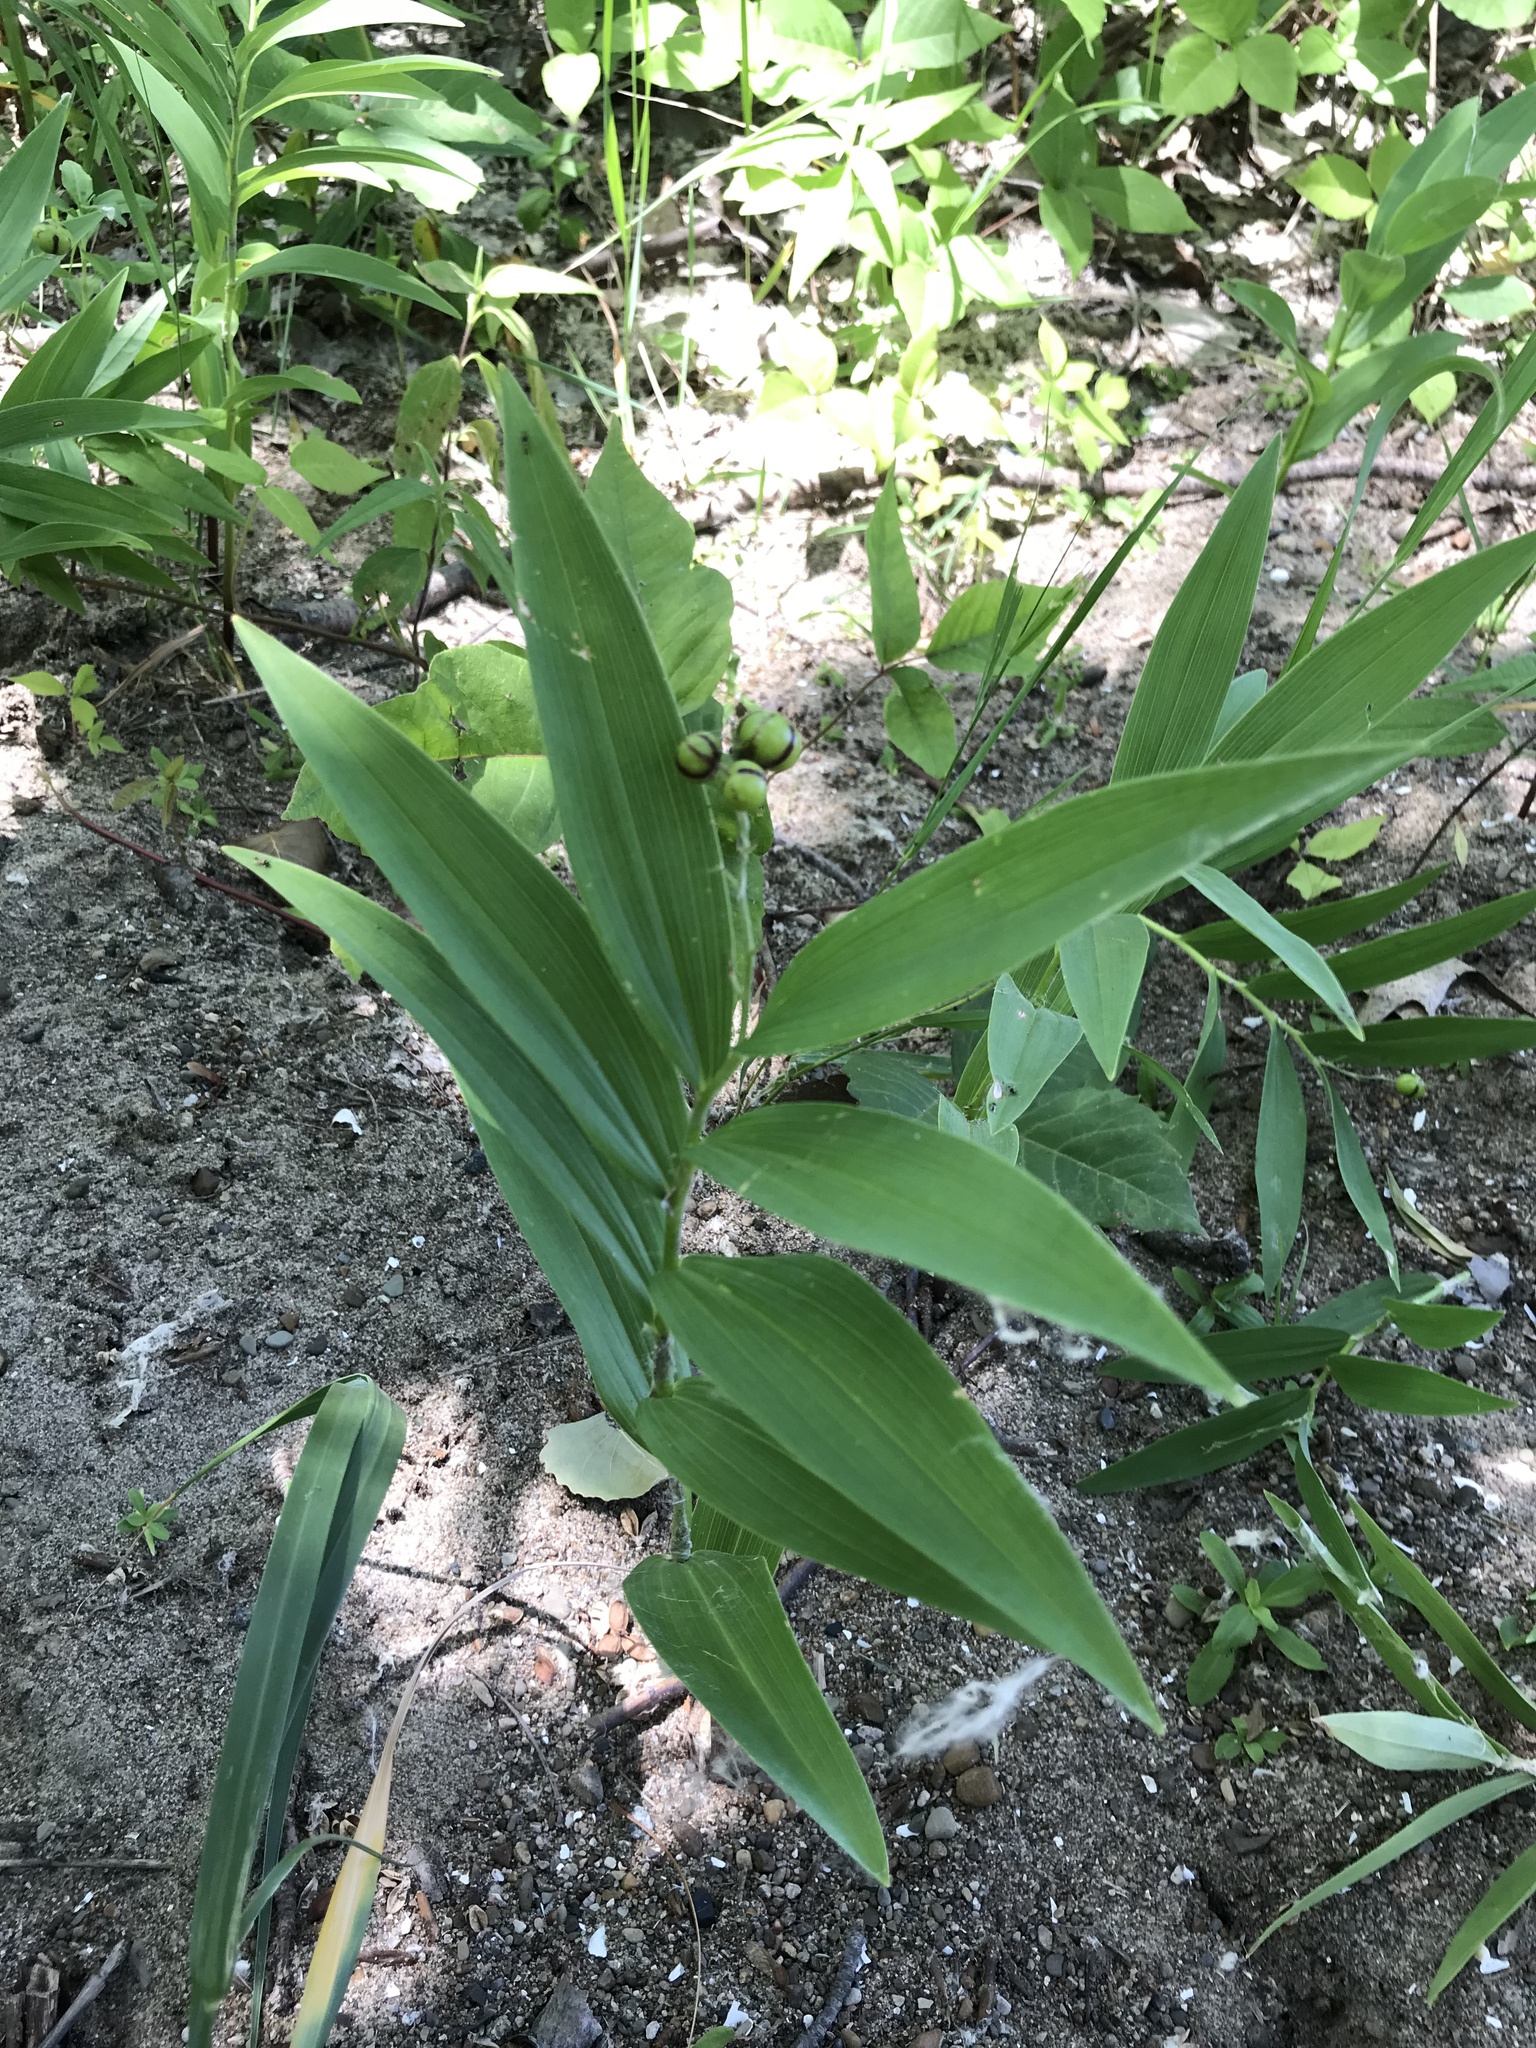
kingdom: Plantae
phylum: Tracheophyta
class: Liliopsida
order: Asparagales
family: Asparagaceae
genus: Maianthemum
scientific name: Maianthemum stellatum
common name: Little false solomon's seal
